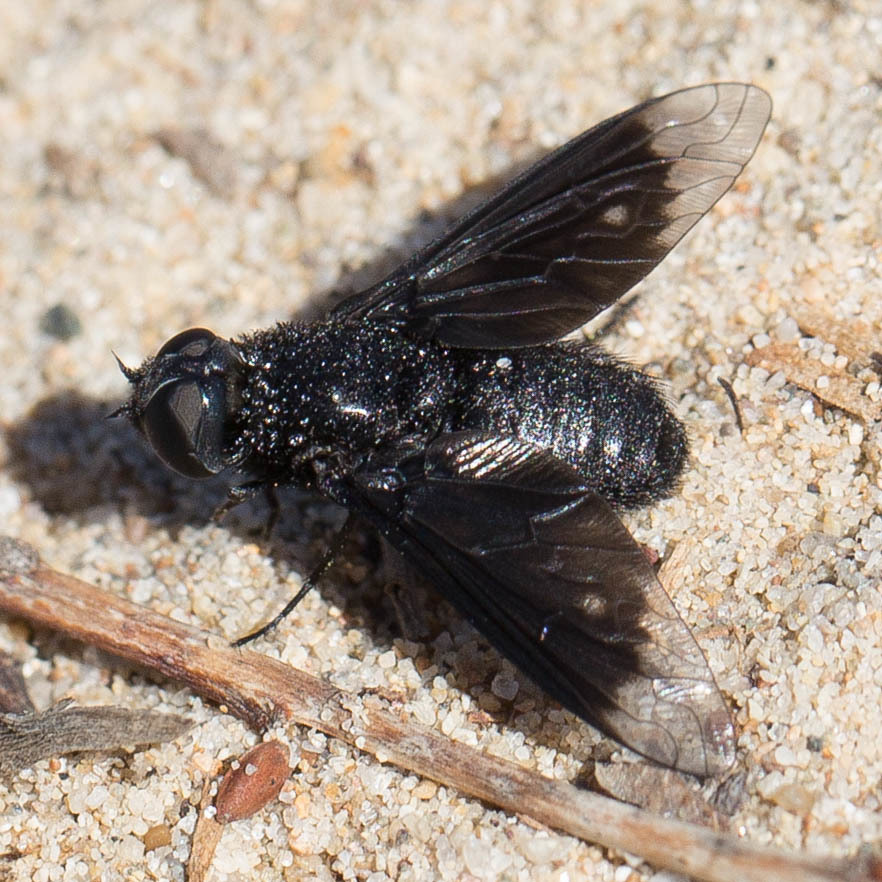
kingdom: Animalia
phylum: Arthropoda
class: Insecta
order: Diptera
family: Bombyliidae
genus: Thyridanthrax
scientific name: Thyridanthrax atratus
